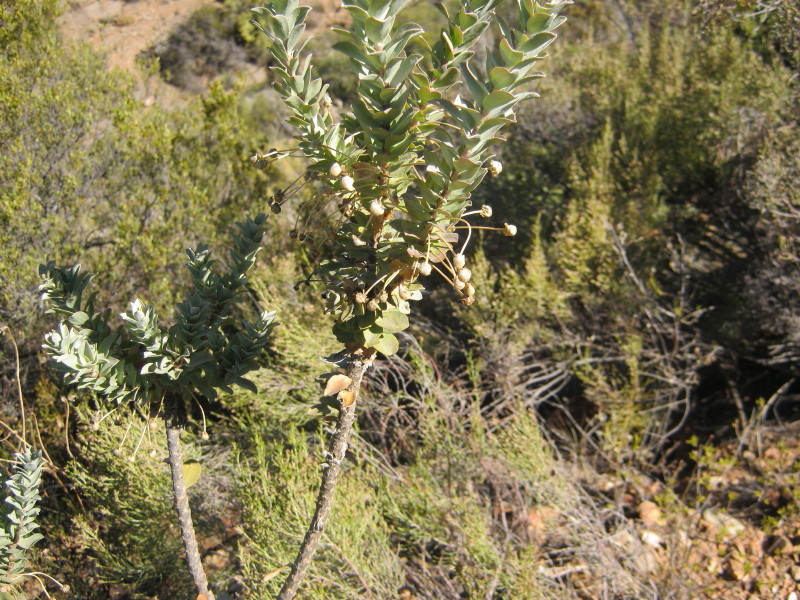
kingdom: Plantae
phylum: Tracheophyta
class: Magnoliopsida
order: Asterales
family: Asteraceae
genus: Euryops
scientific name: Euryops lateriflorus
